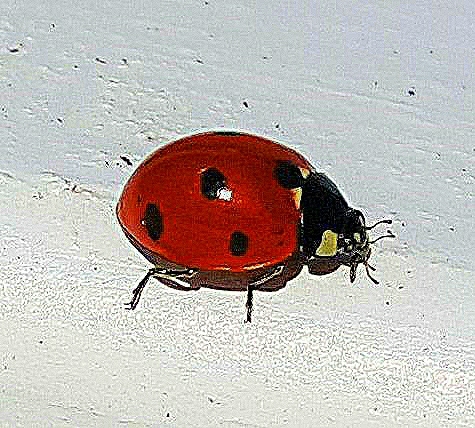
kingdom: Animalia
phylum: Arthropoda
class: Insecta
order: Coleoptera
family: Coccinellidae
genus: Coccinella
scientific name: Coccinella septempunctata
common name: Sevenspotted lady beetle
